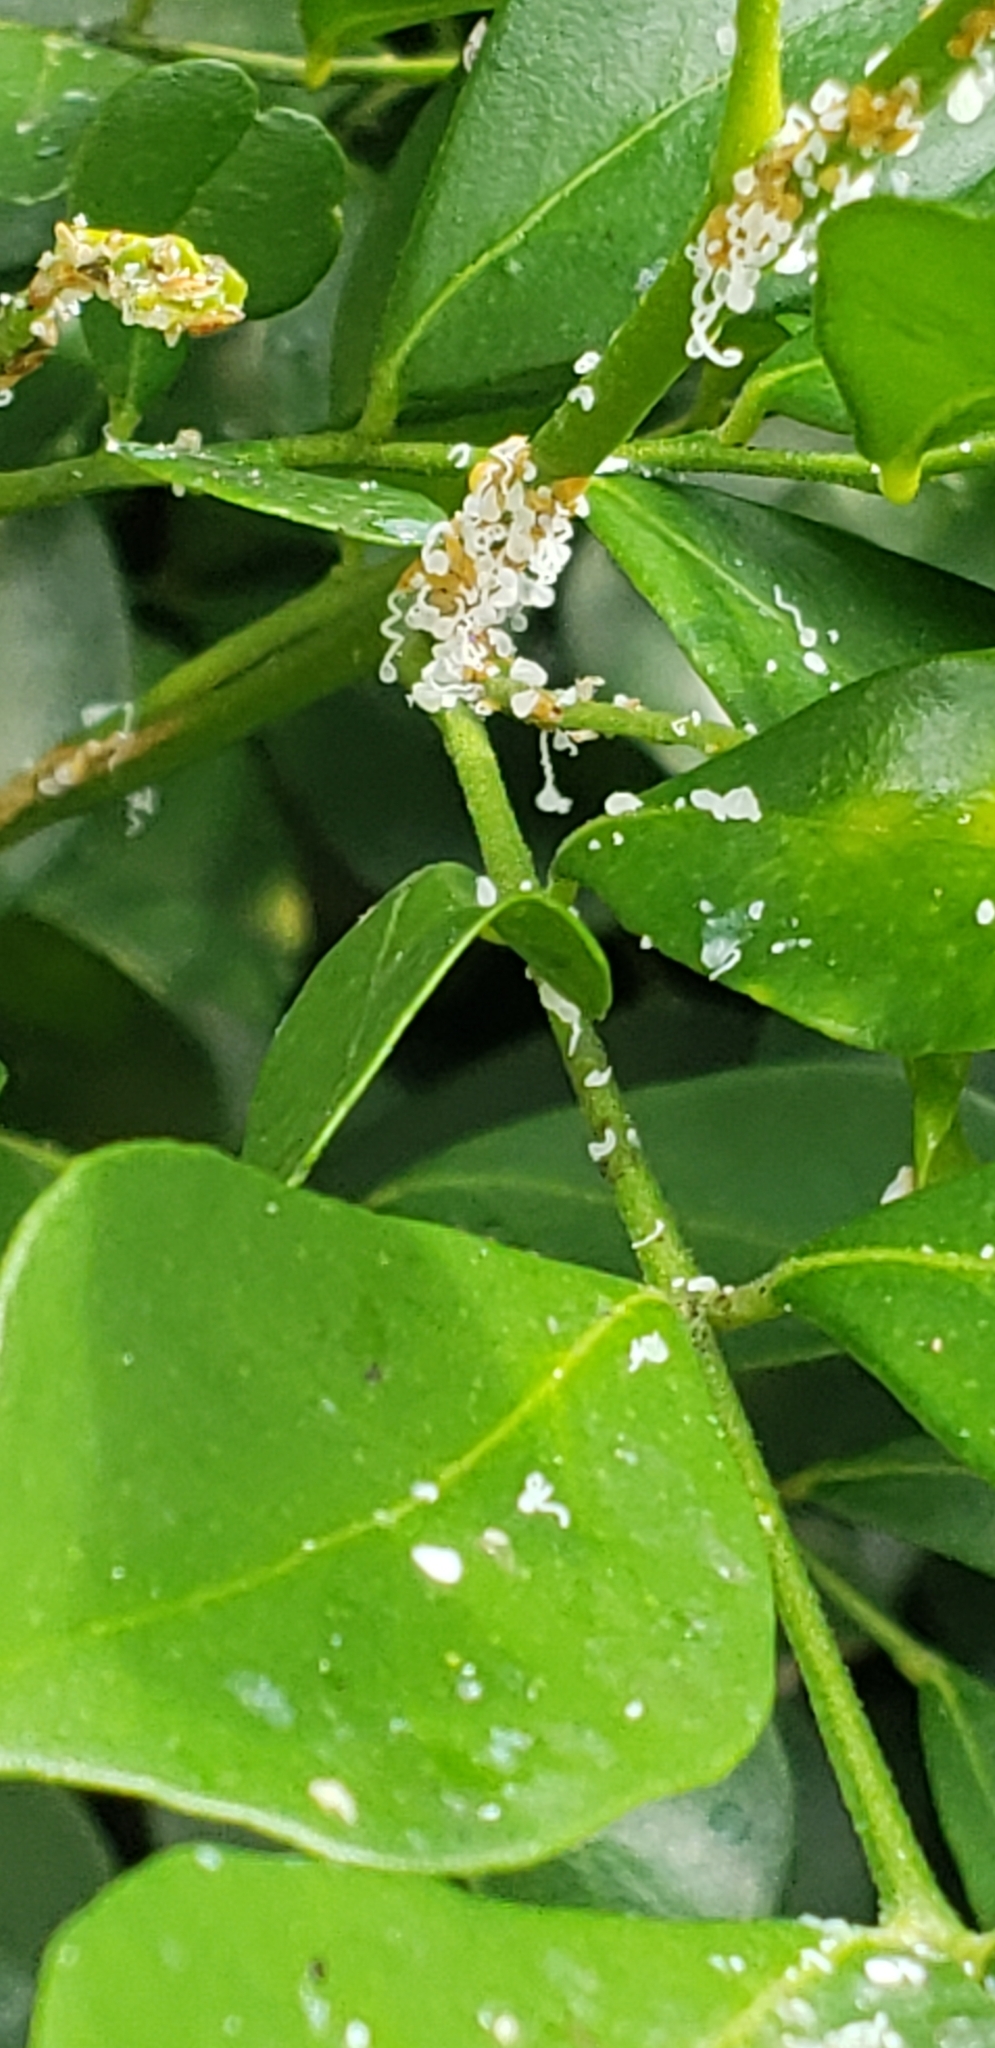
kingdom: Animalia
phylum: Arthropoda
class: Insecta
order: Hemiptera
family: Liviidae
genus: Diaphorina
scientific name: Diaphorina citri
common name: Asian citrus psyllid
